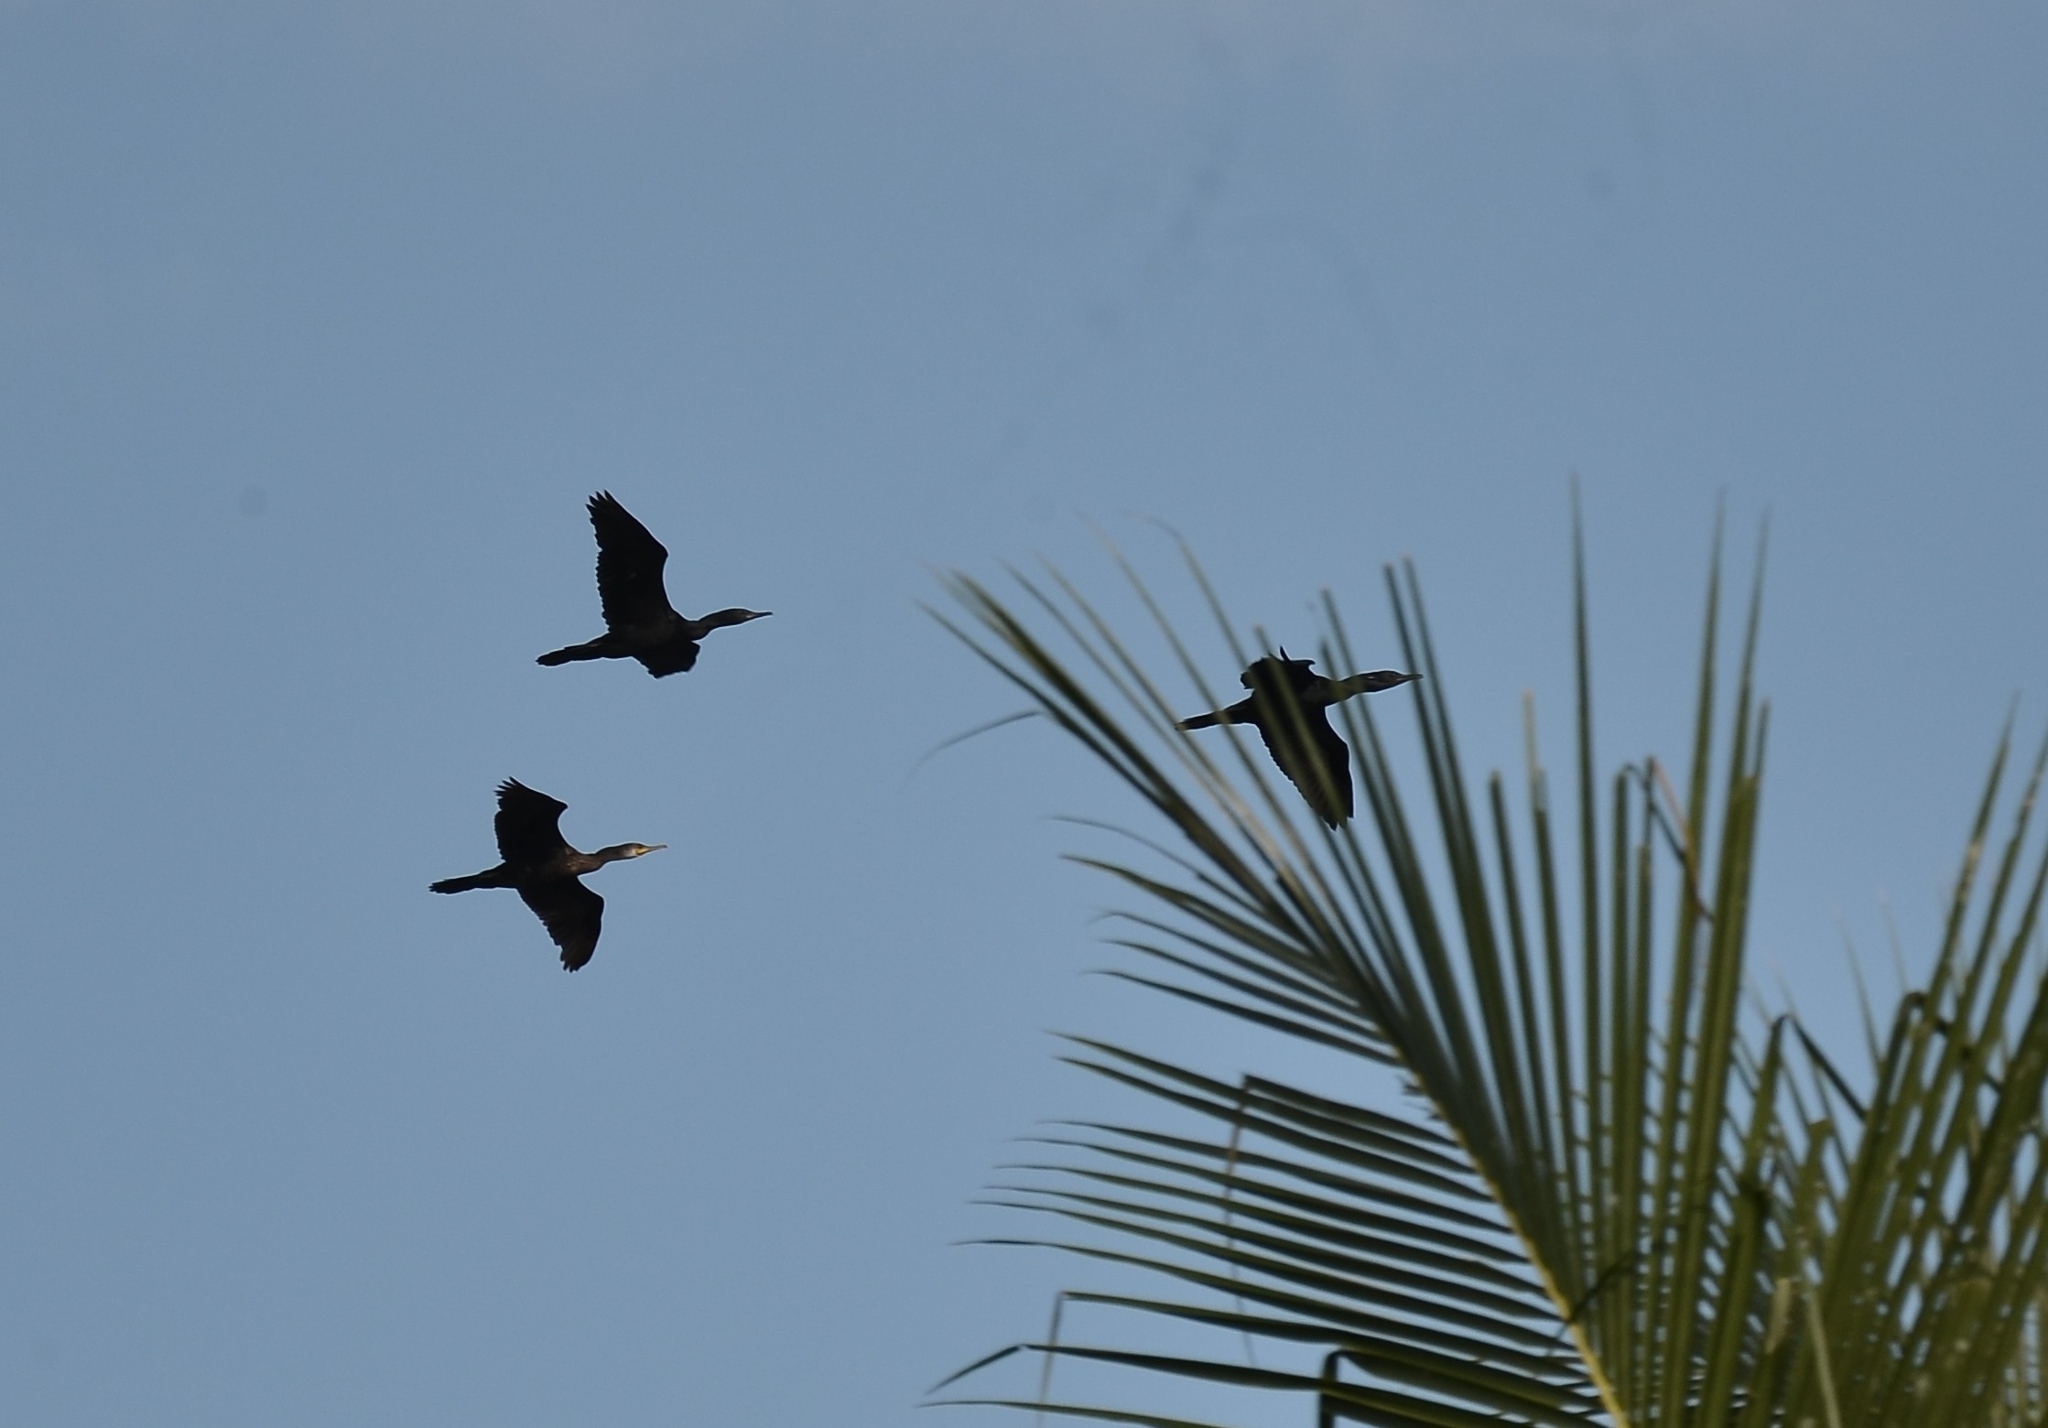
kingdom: Animalia
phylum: Chordata
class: Aves
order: Suliformes
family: Phalacrocoracidae
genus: Phalacrocorax
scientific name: Phalacrocorax fuscicollis
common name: Indian cormorant
